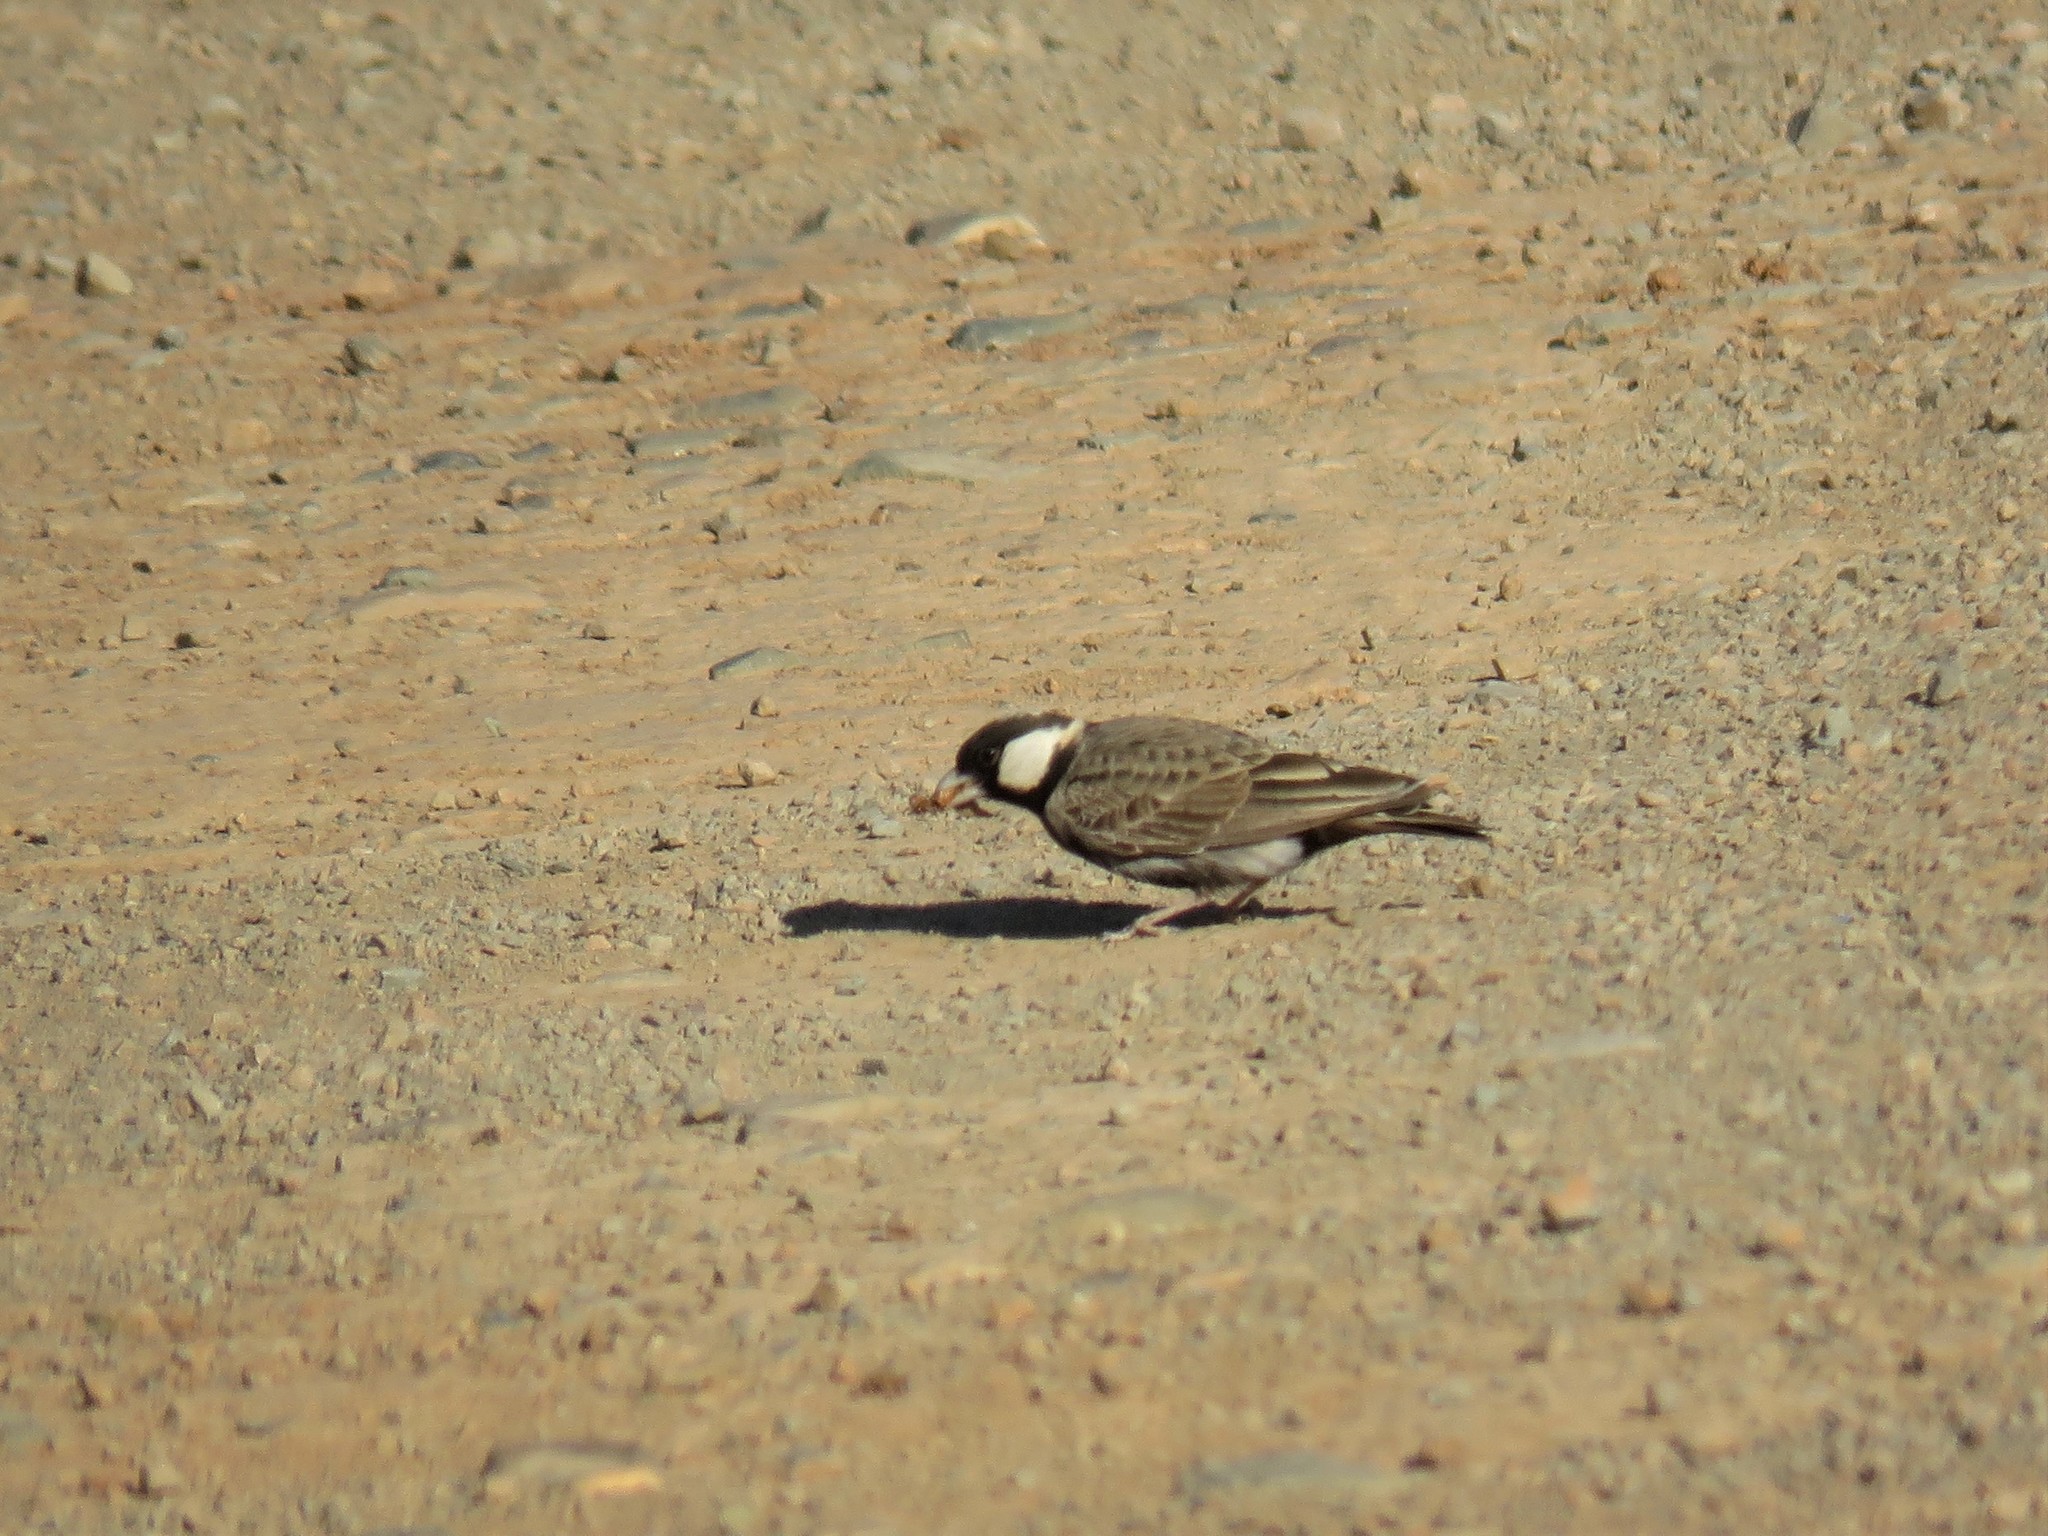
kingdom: Animalia
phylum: Chordata
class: Aves
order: Passeriformes
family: Alaudidae
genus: Eremopterix
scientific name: Eremopterix verticalis
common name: Grey-backed sparrow-lark
